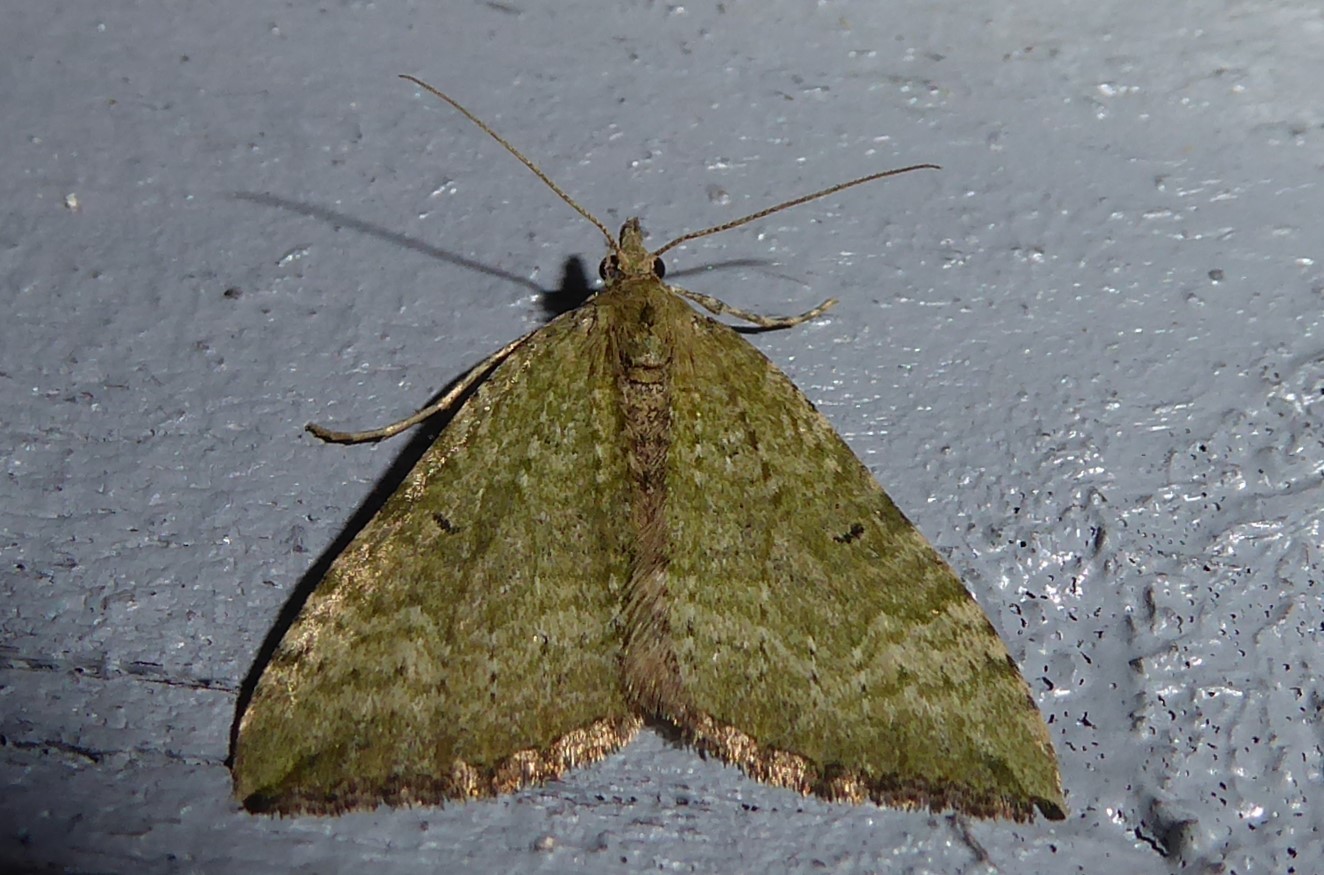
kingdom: Animalia
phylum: Arthropoda
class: Insecta
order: Lepidoptera
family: Geometridae
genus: Epyaxa
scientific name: Epyaxa rosearia
